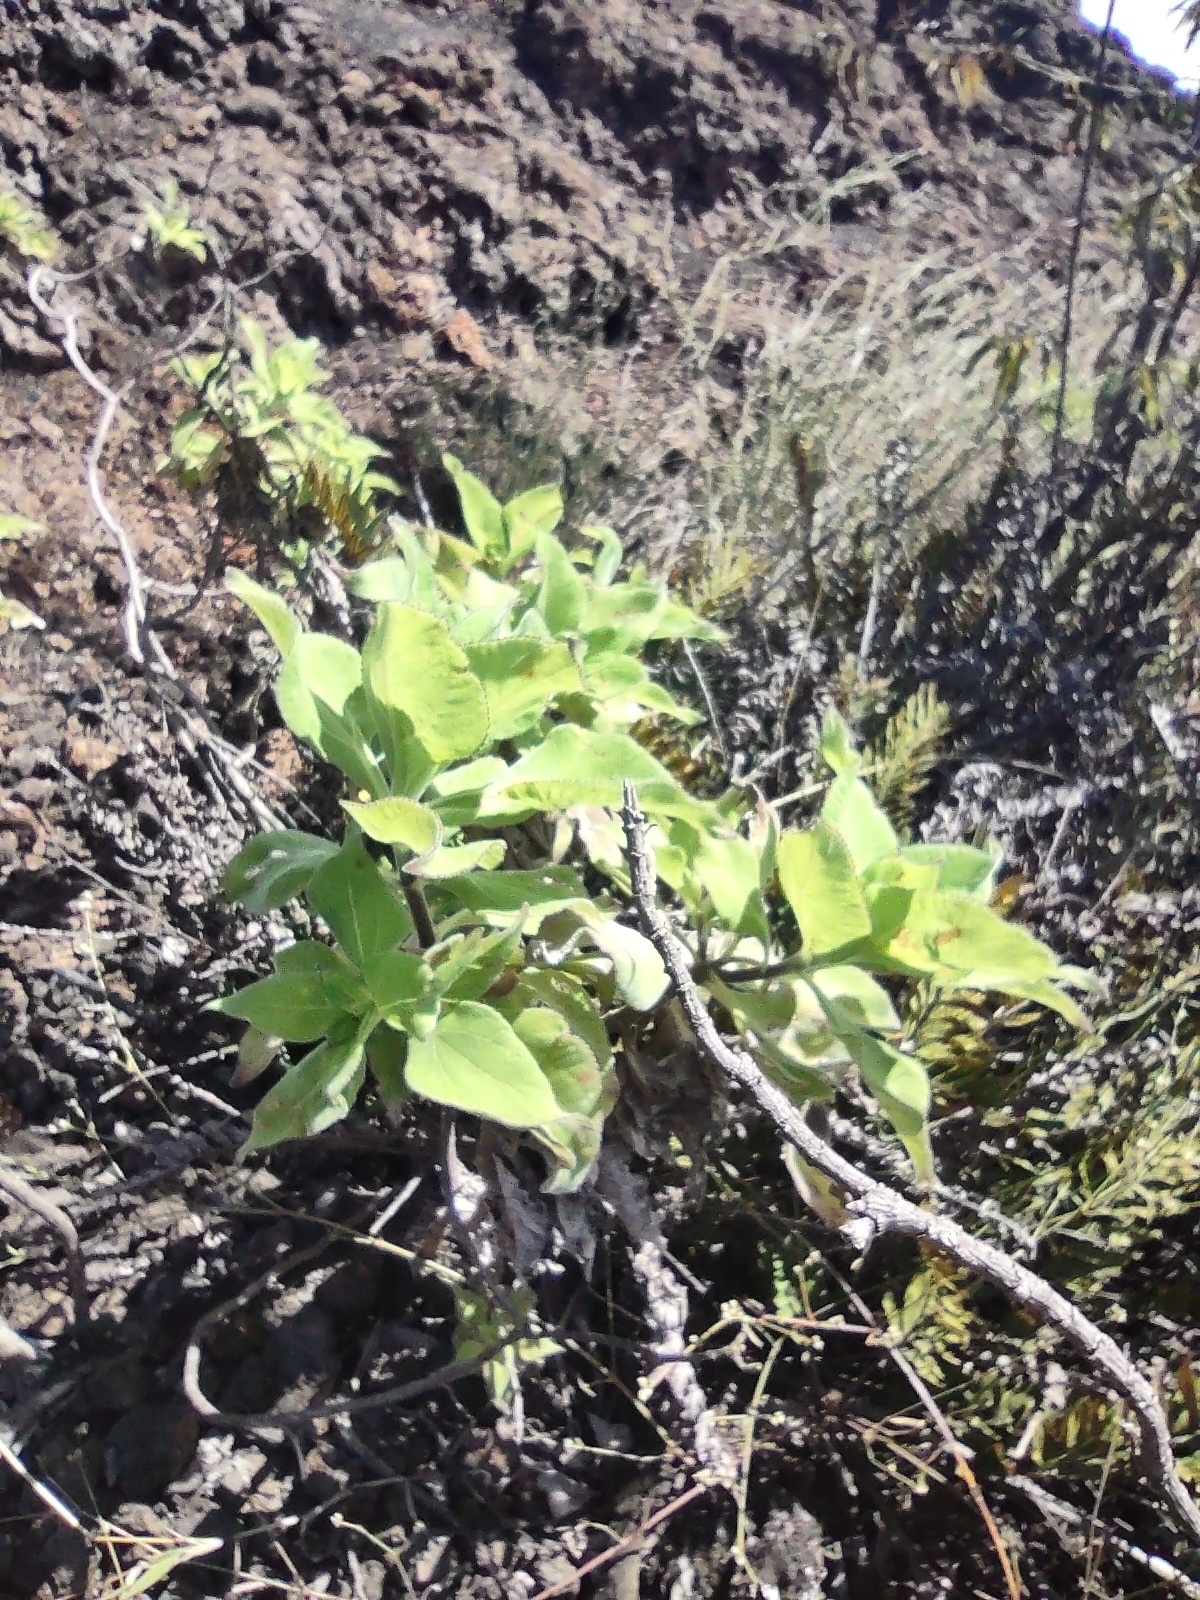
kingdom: Plantae
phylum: Tracheophyta
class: Magnoliopsida
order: Asterales
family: Asteraceae
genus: Scalesia
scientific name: Scalesia affinis
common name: Radiate-headed scalesia
